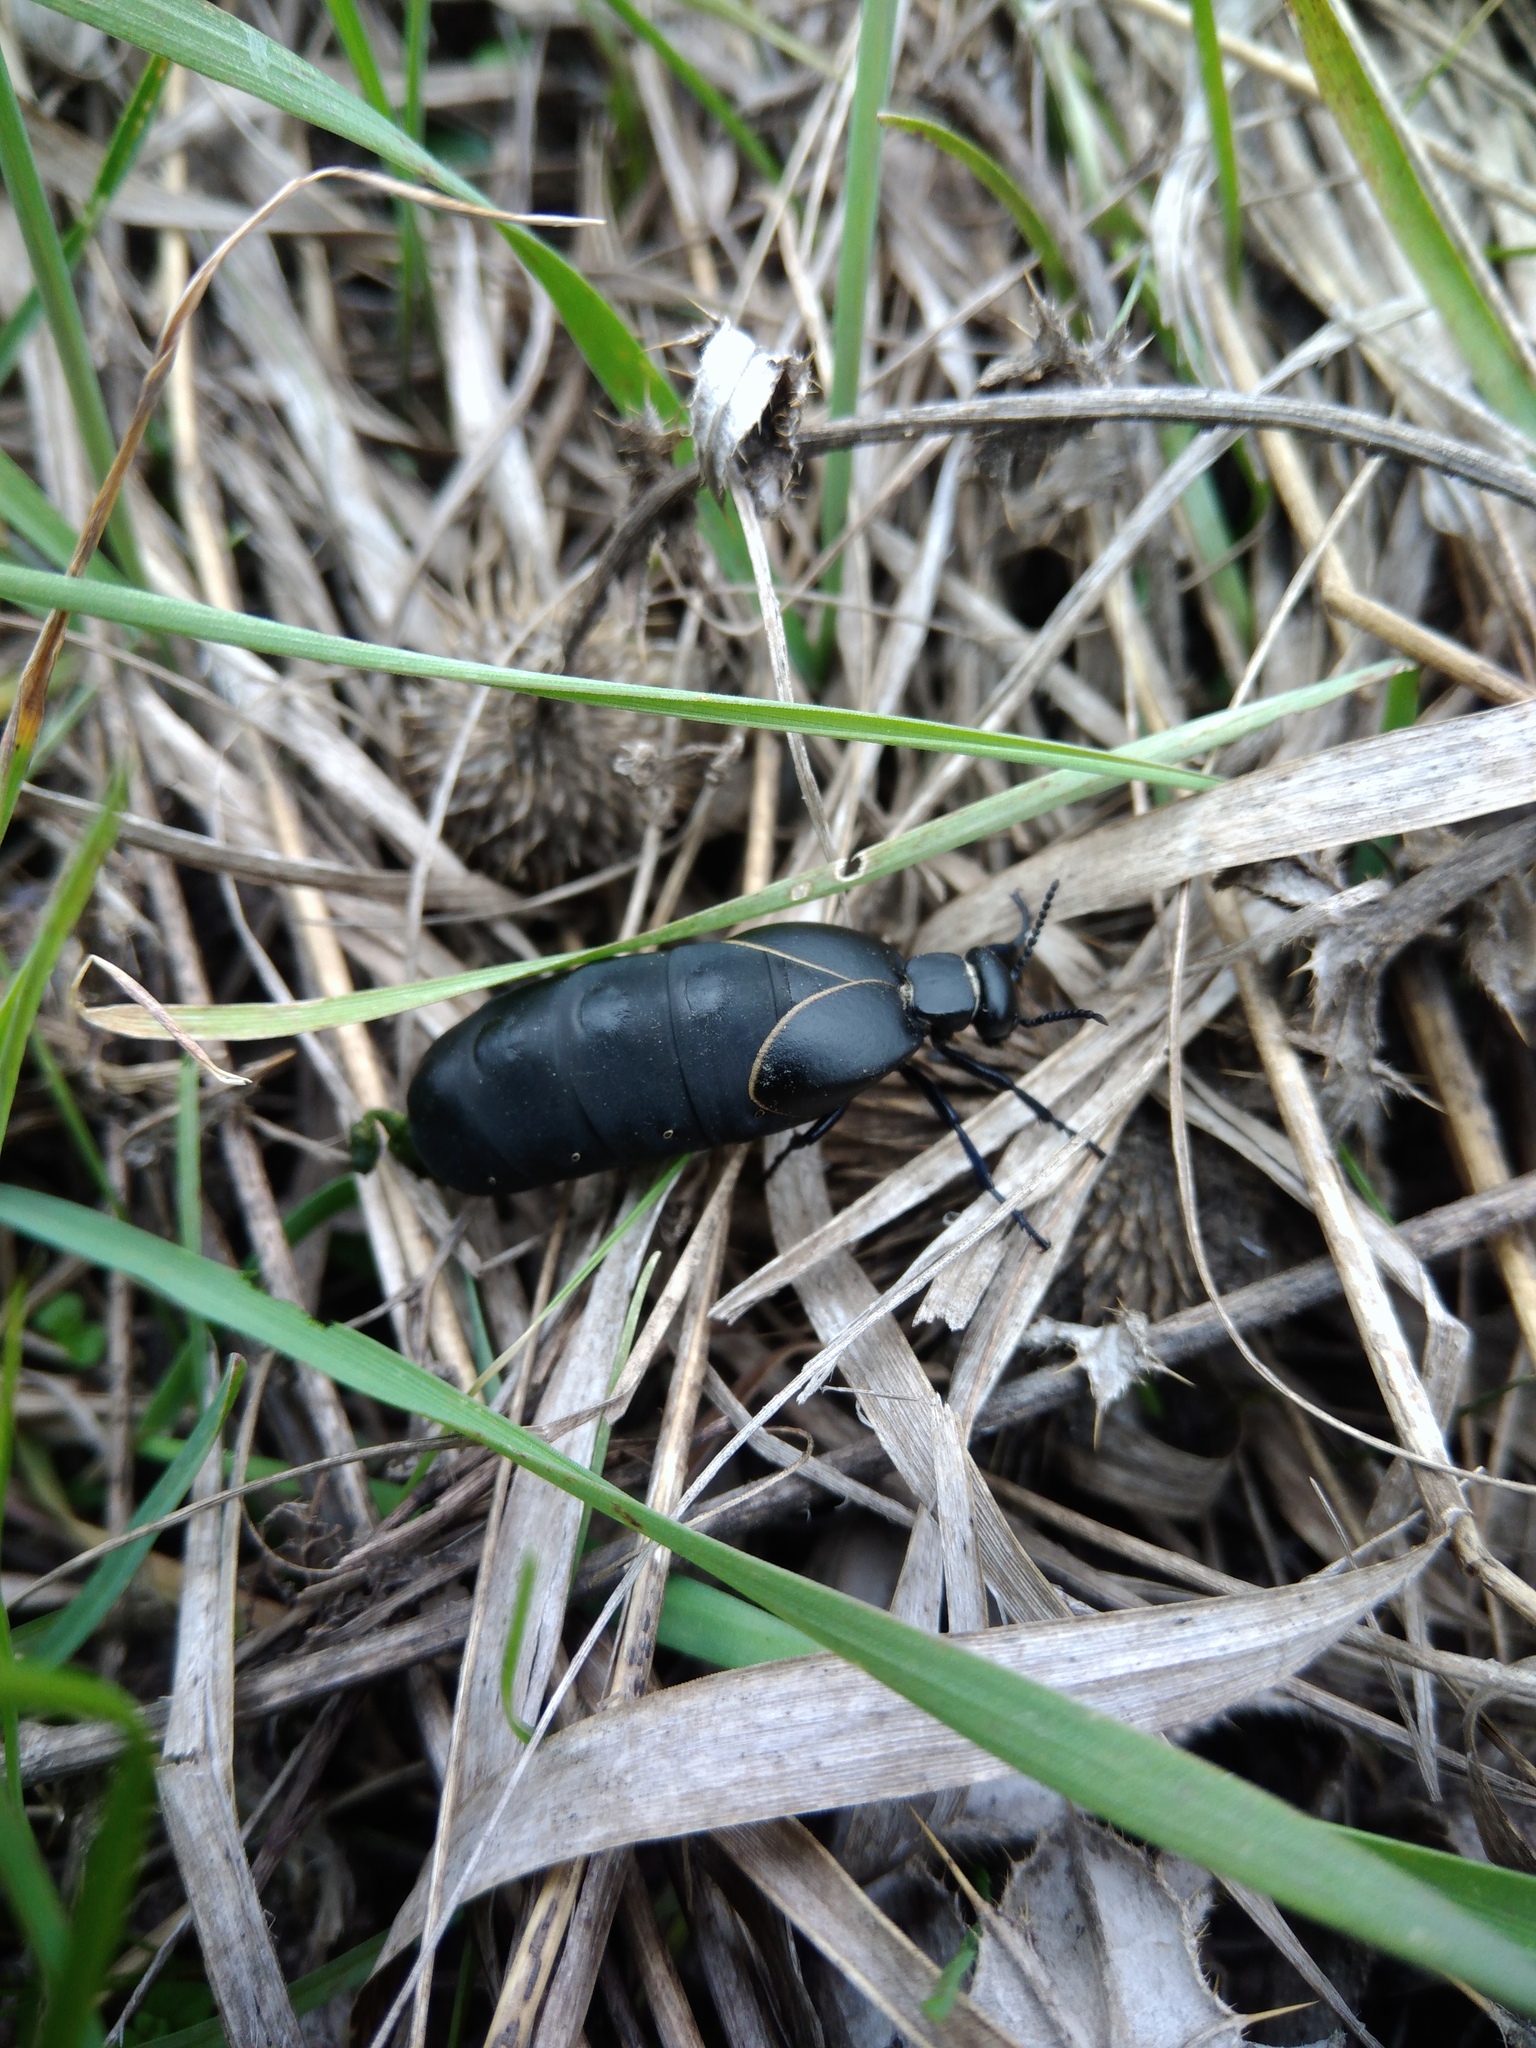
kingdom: Animalia
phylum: Arthropoda
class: Insecta
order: Coleoptera
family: Meloidae
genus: Meloe
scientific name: Meloe hungarus
